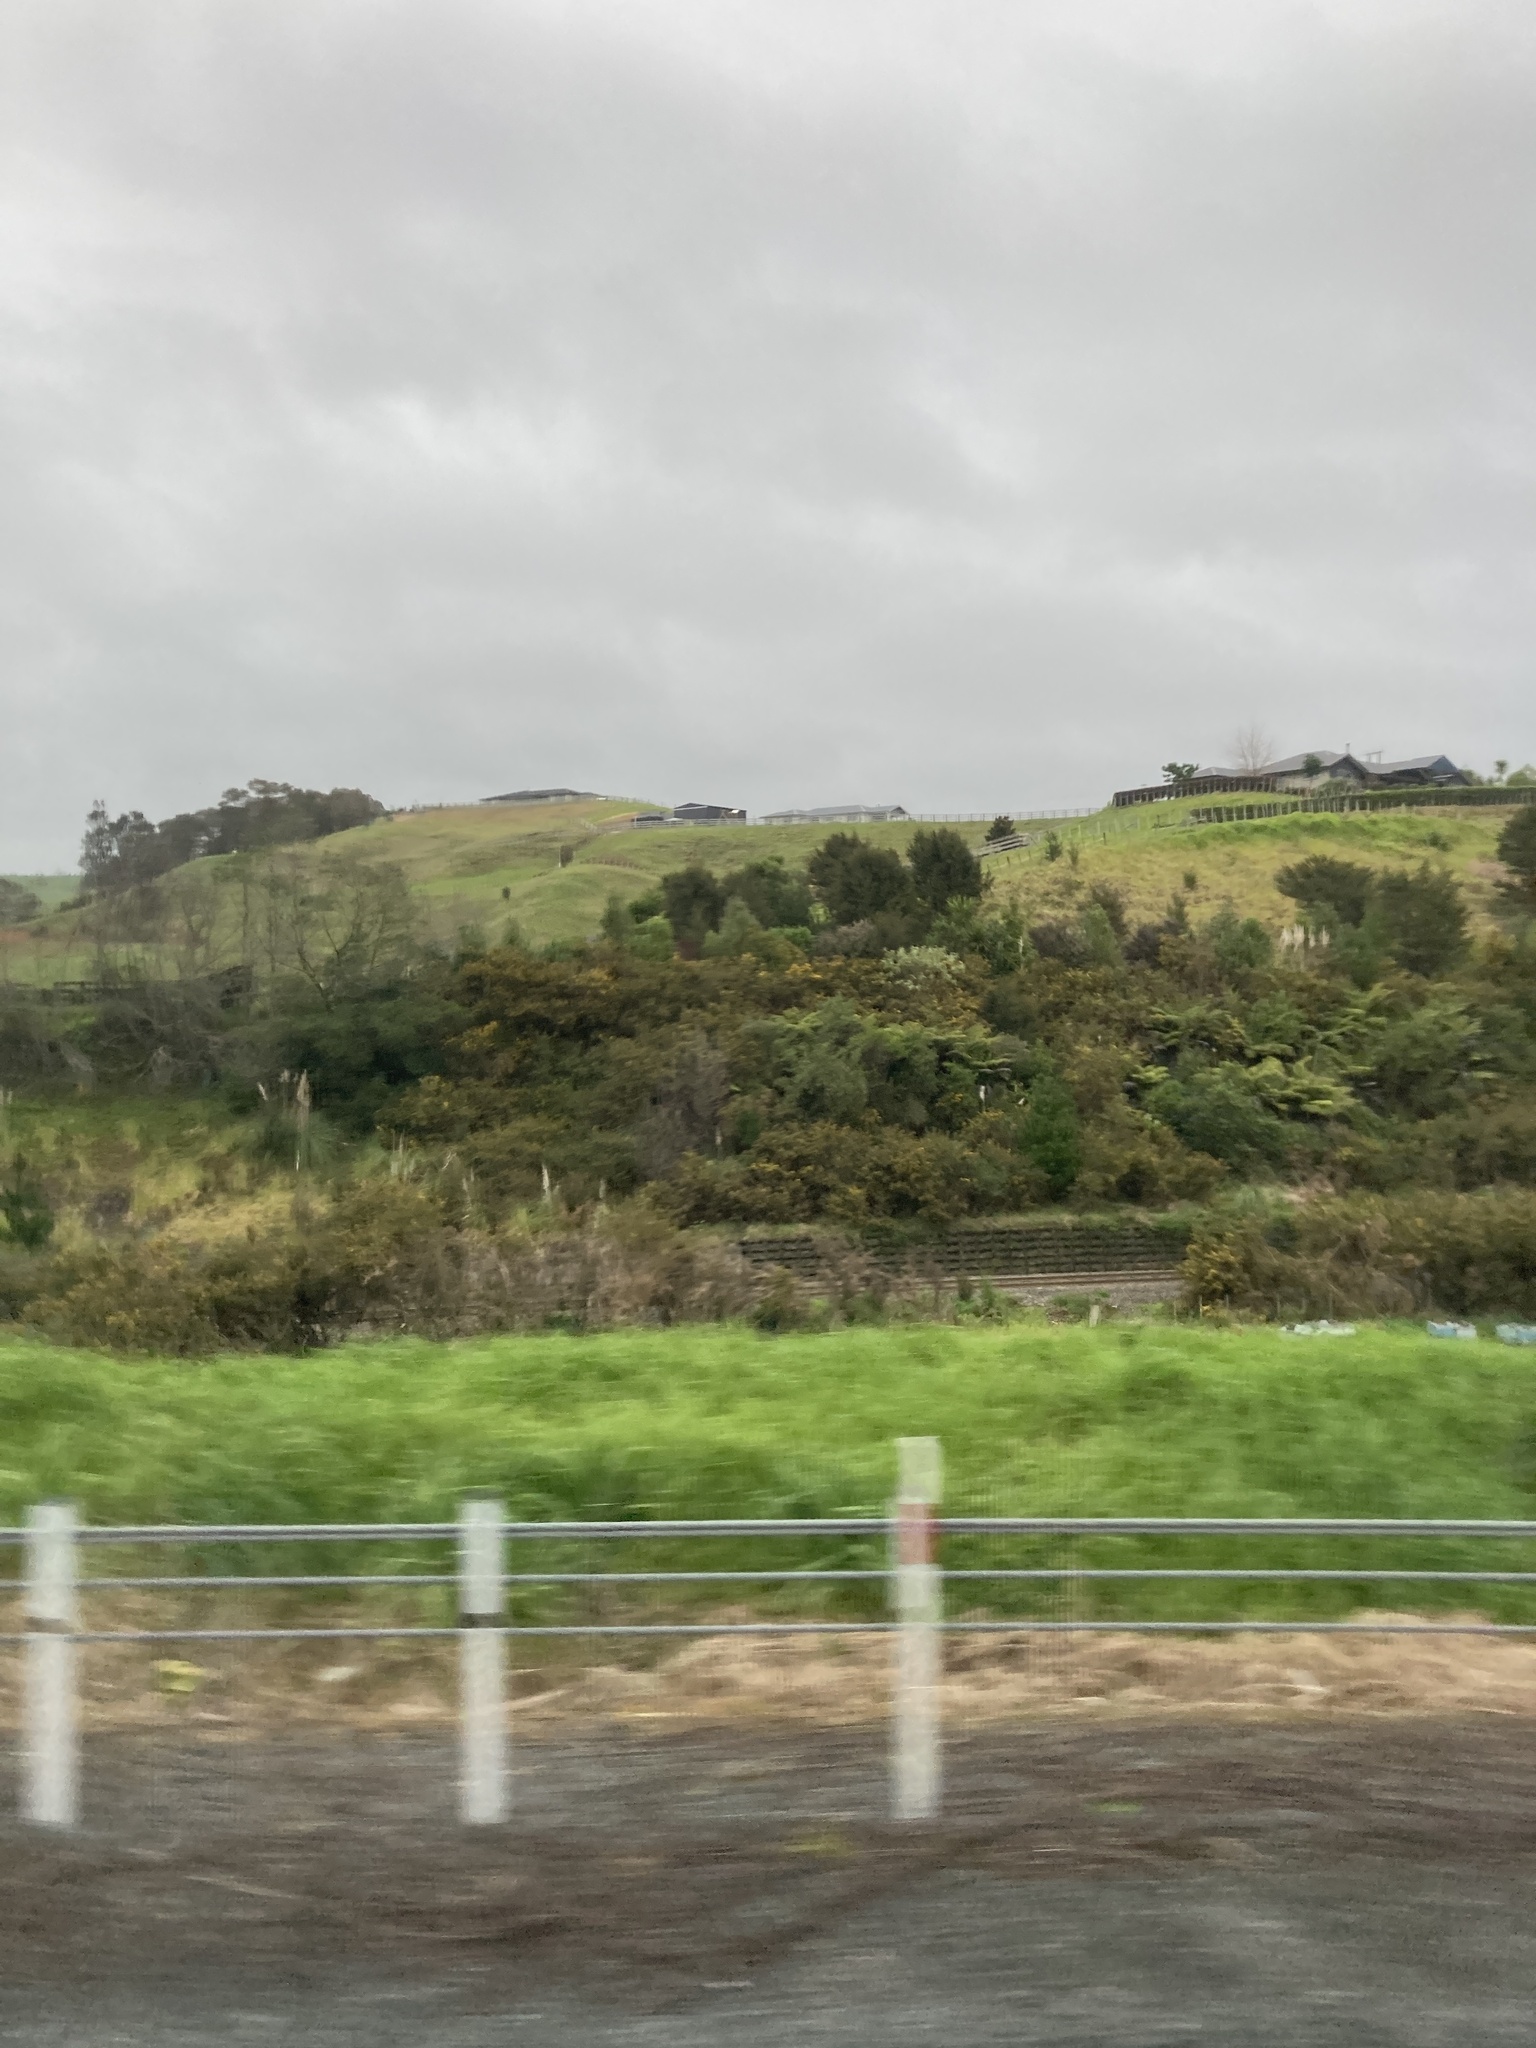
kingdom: Plantae
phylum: Tracheophyta
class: Liliopsida
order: Poales
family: Poaceae
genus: Cortaderia
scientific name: Cortaderia selloana
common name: Uruguayan pampas grass
